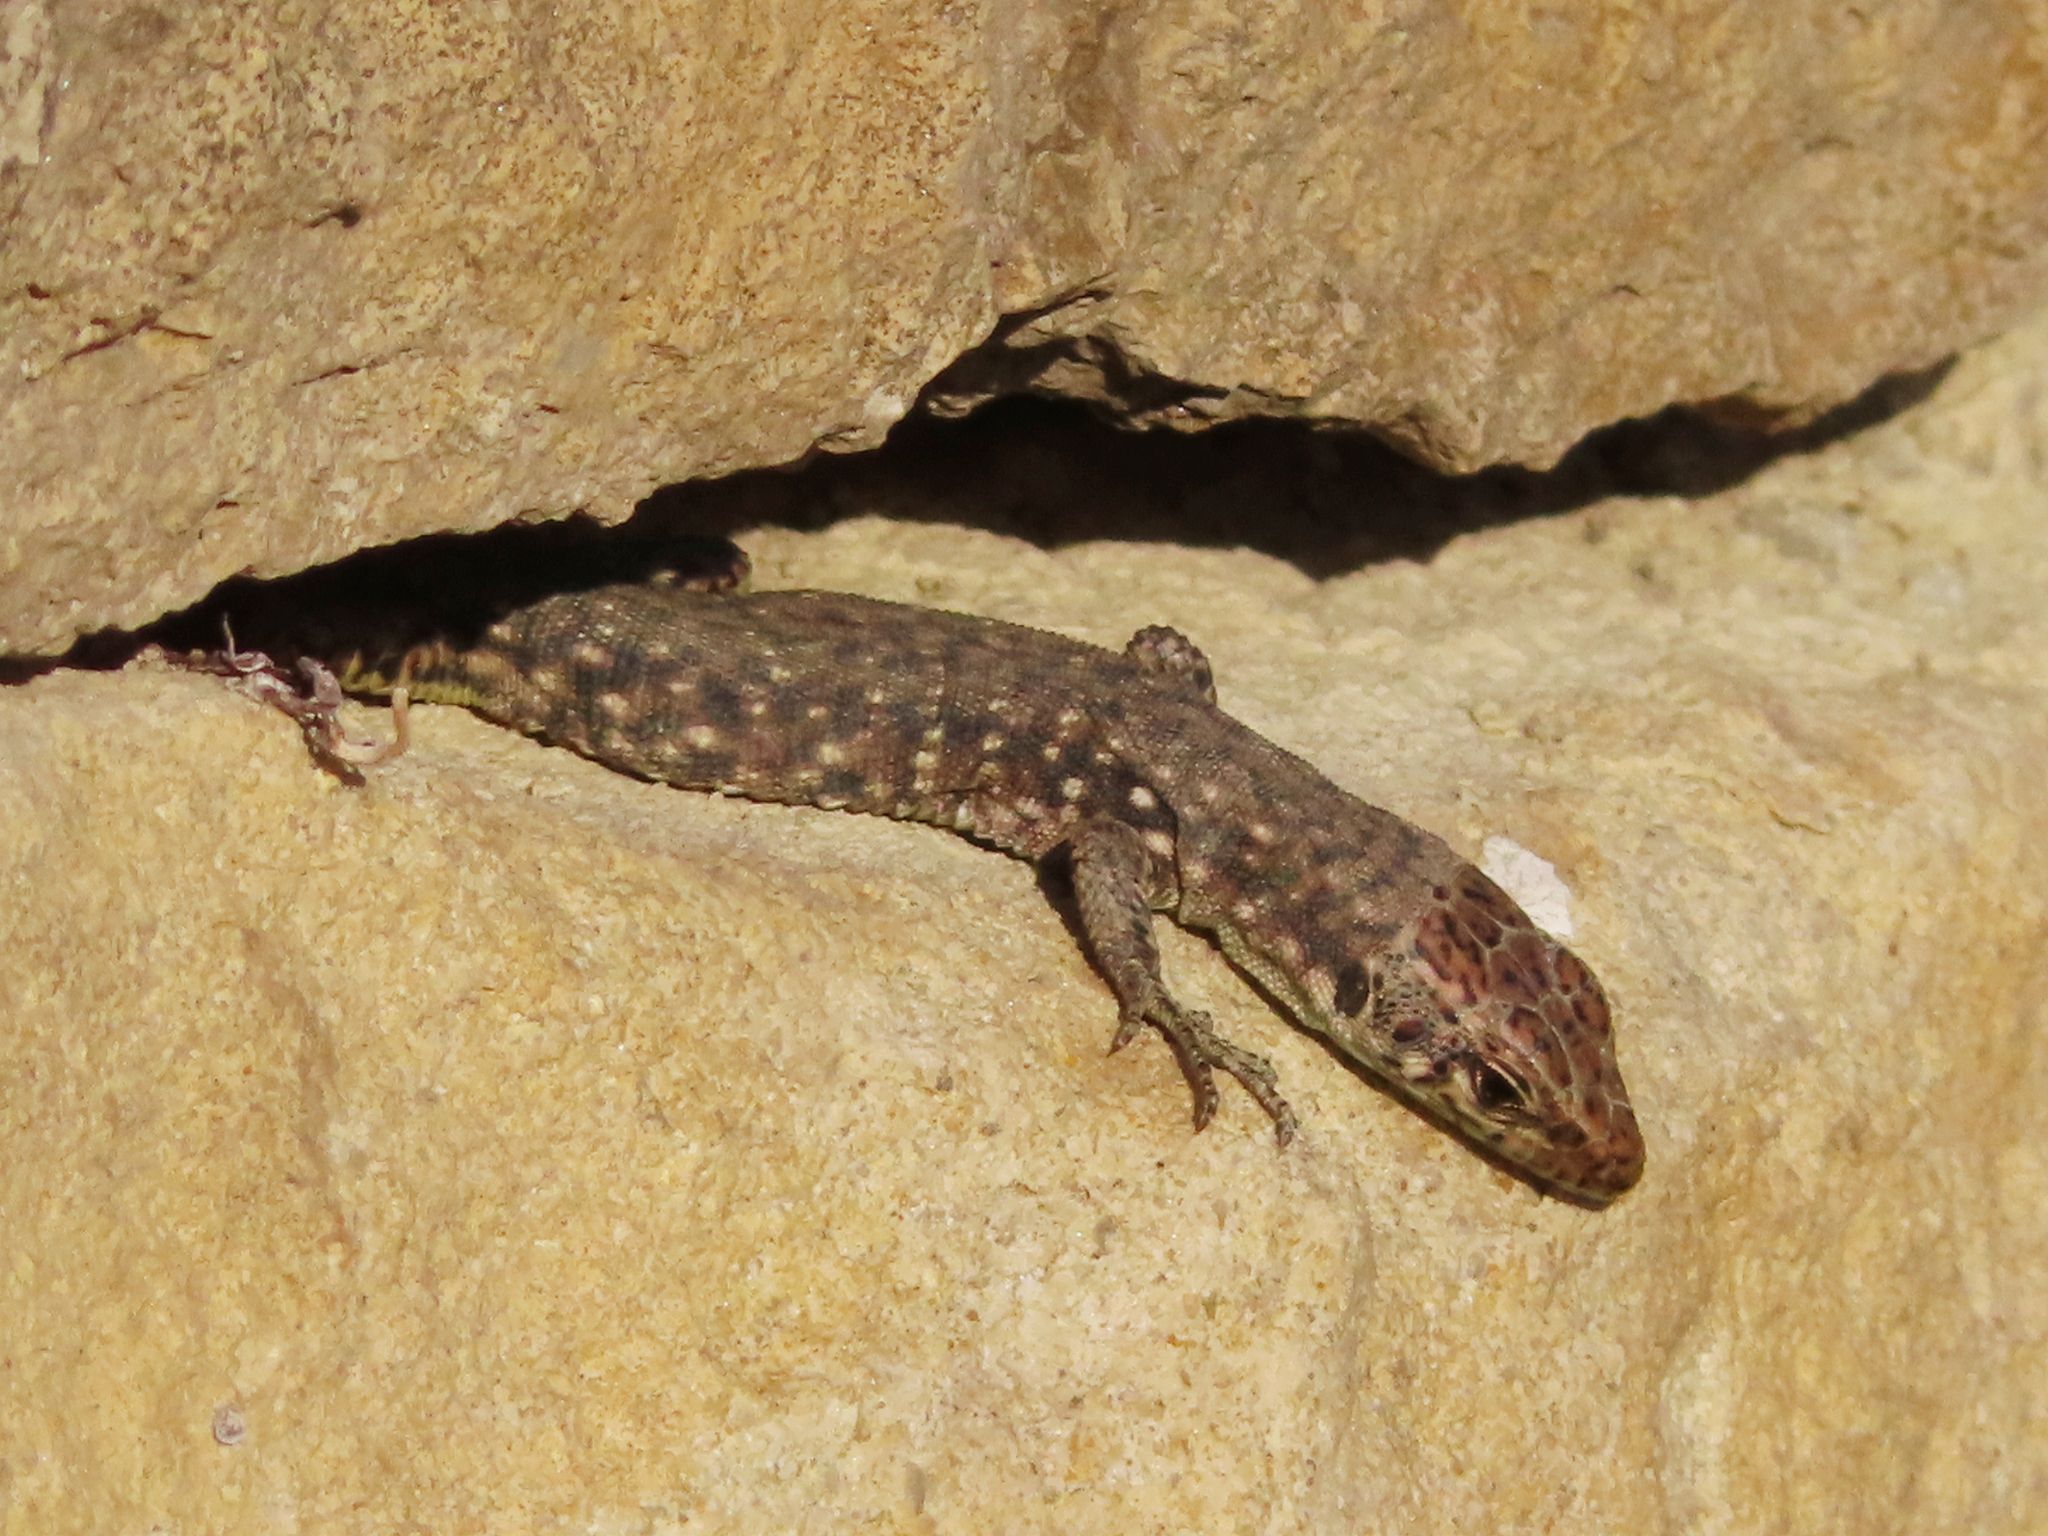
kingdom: Animalia
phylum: Chordata
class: Squamata
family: Lacertidae
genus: Darevskia
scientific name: Darevskia rudis
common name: Spiny-tailed lizard
